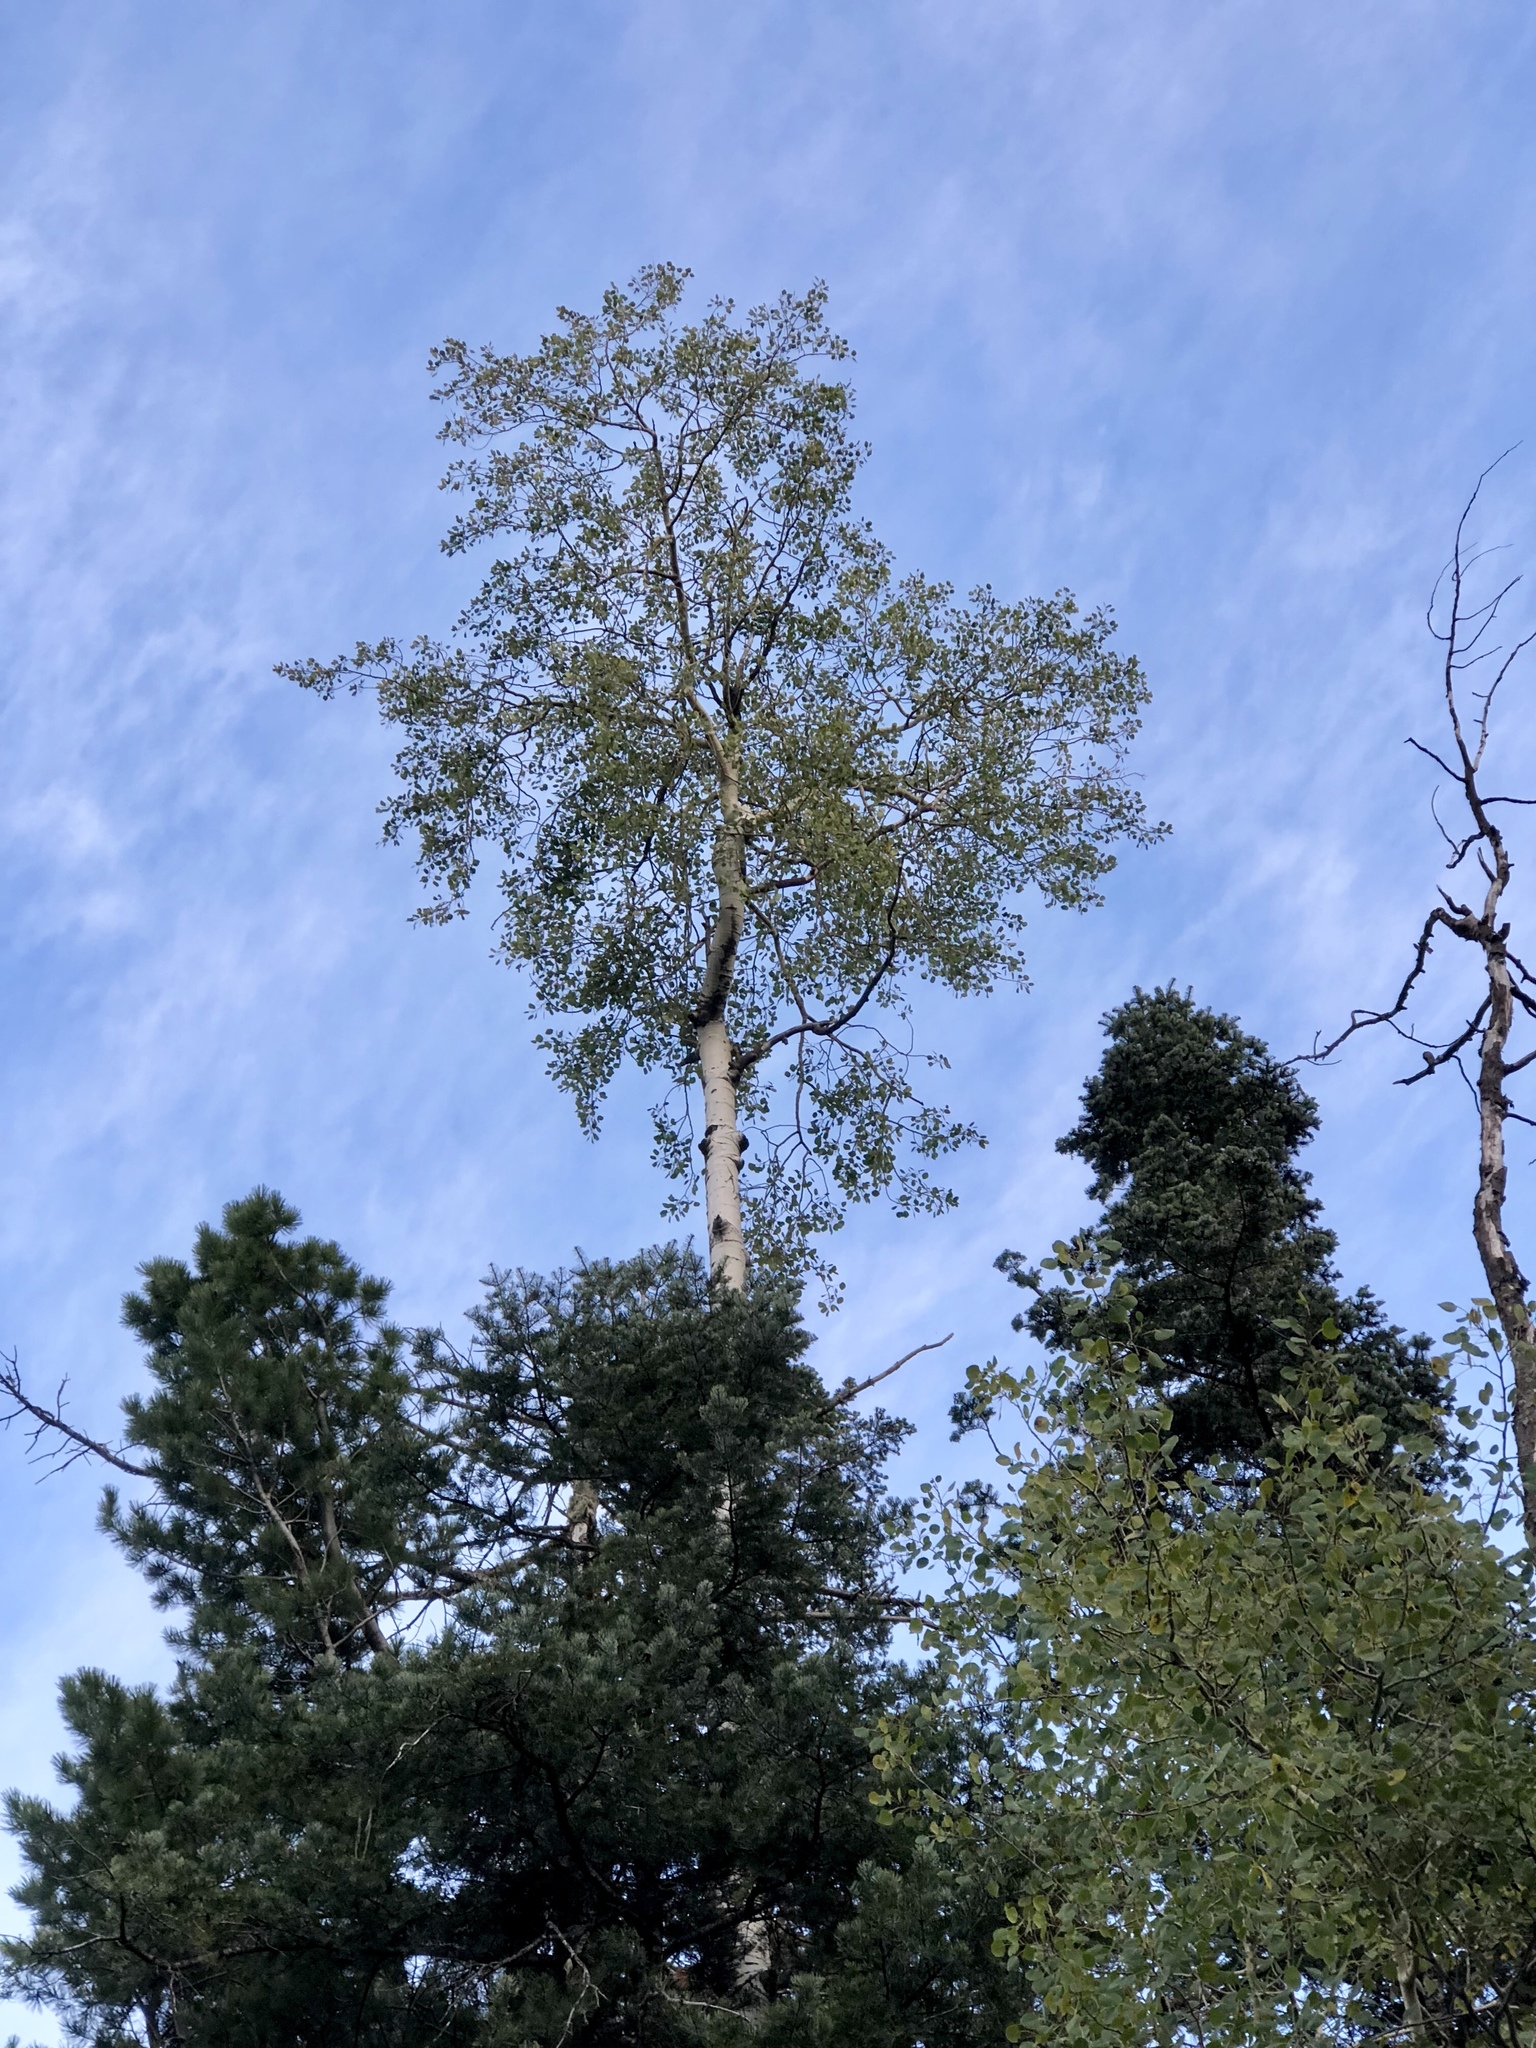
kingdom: Plantae
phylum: Tracheophyta
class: Magnoliopsida
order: Malpighiales
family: Salicaceae
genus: Populus
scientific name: Populus tremuloides
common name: Quaking aspen
